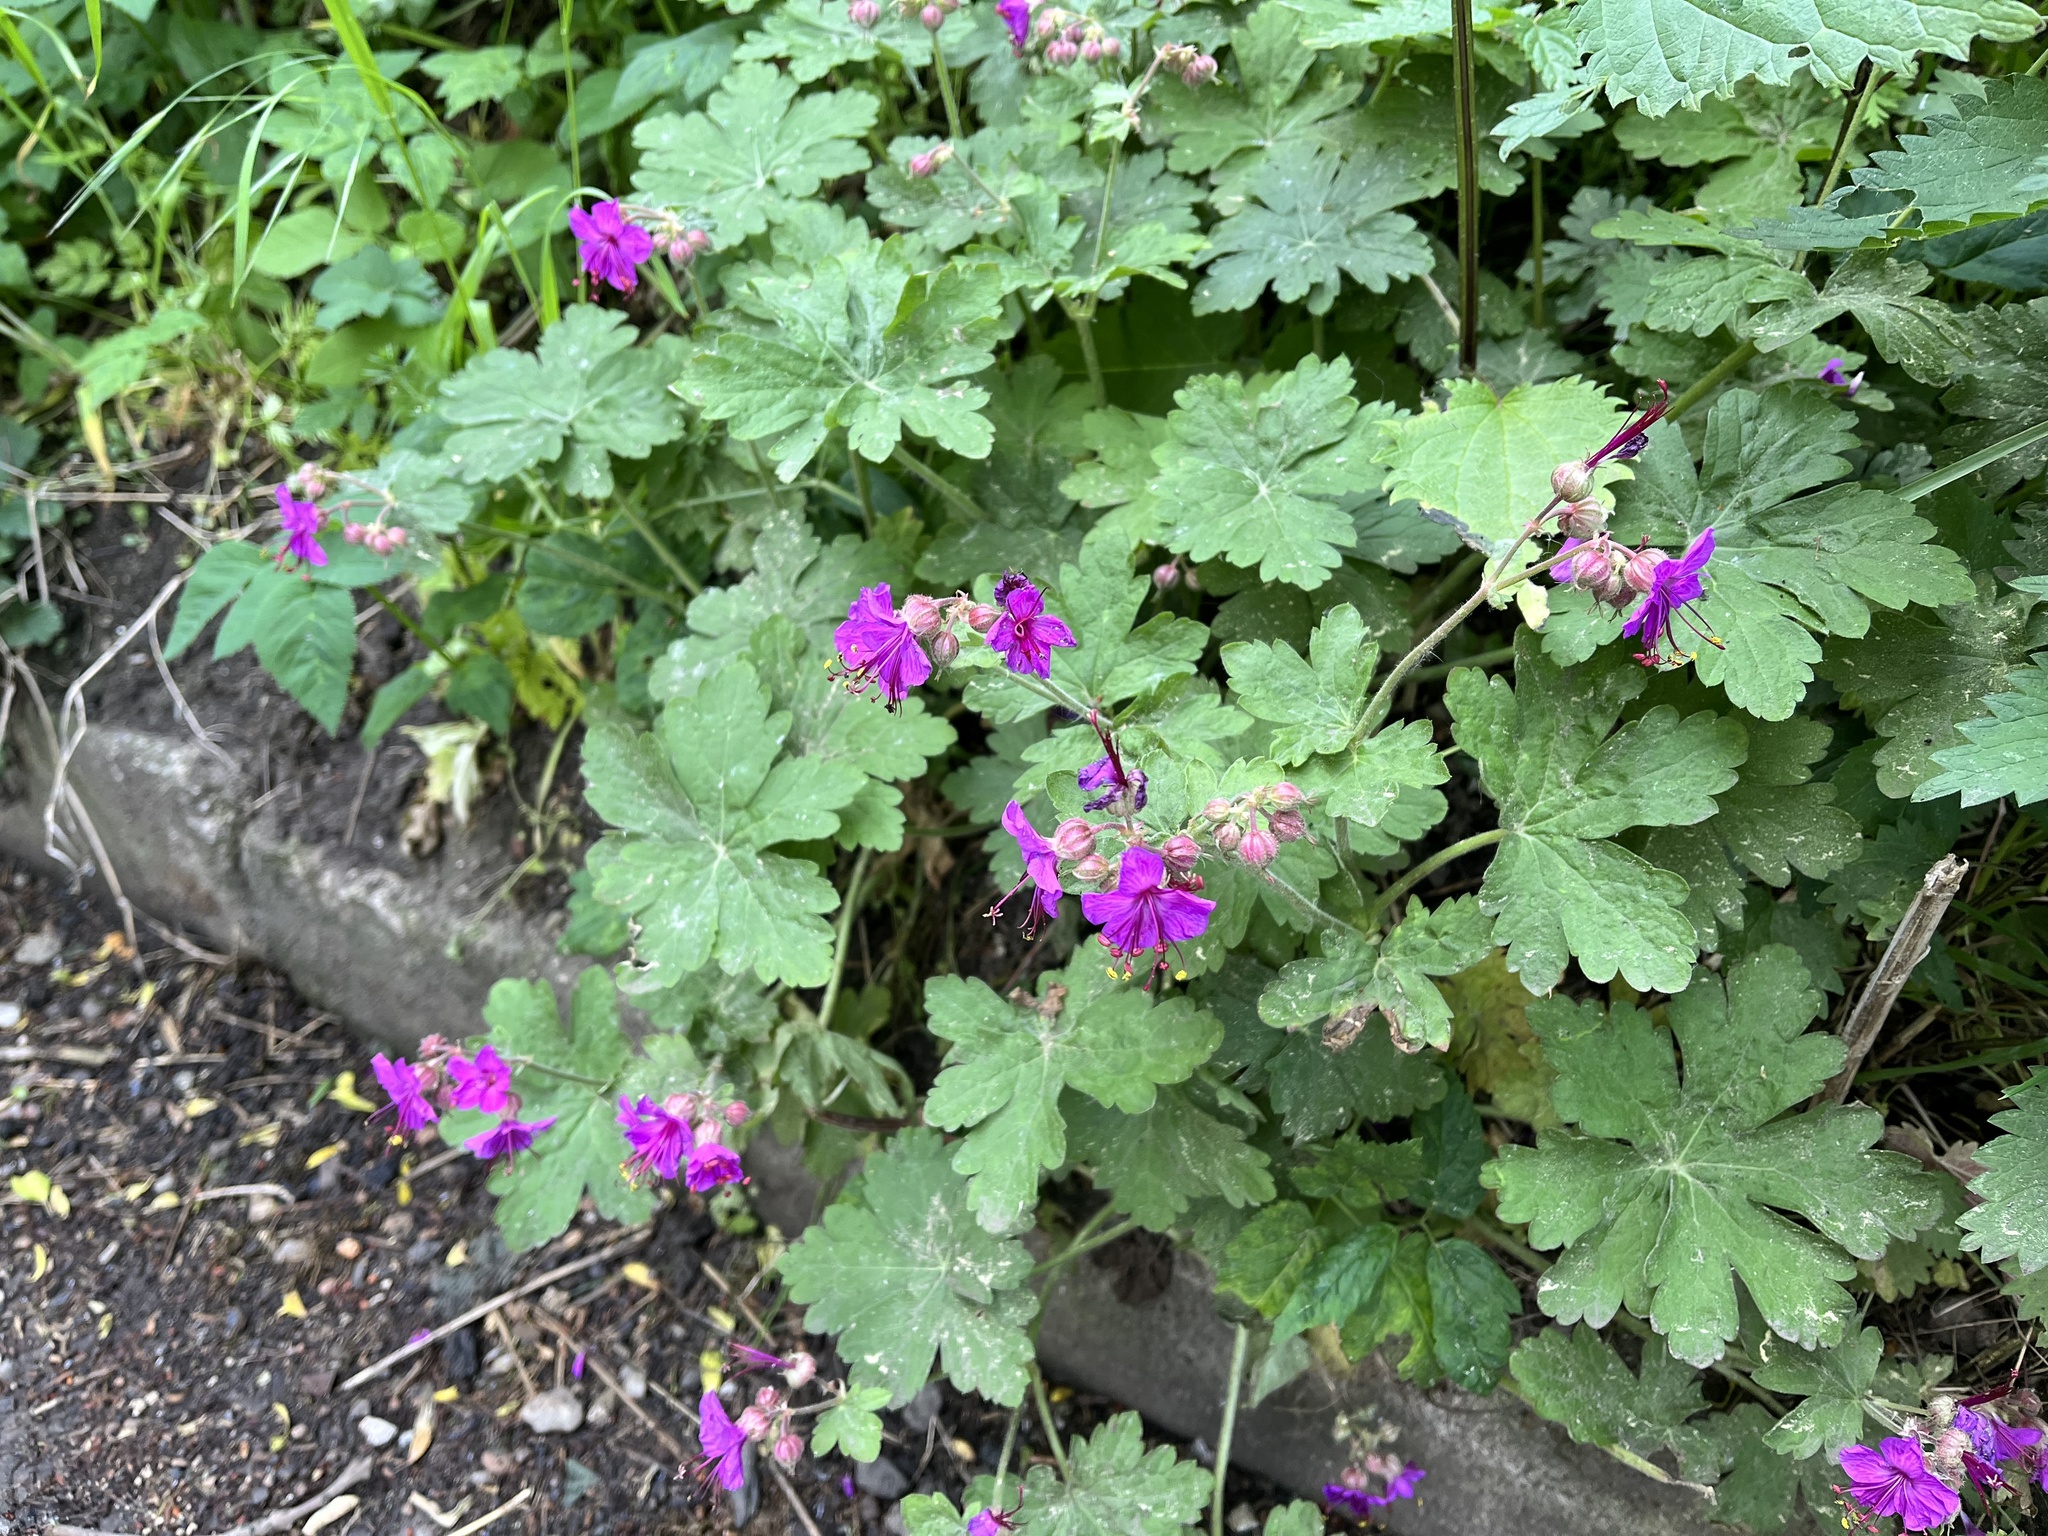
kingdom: Plantae
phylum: Tracheophyta
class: Magnoliopsida
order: Geraniales
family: Geraniaceae
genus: Geranium
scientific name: Geranium macrorrhizum
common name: Rock crane's-bill
